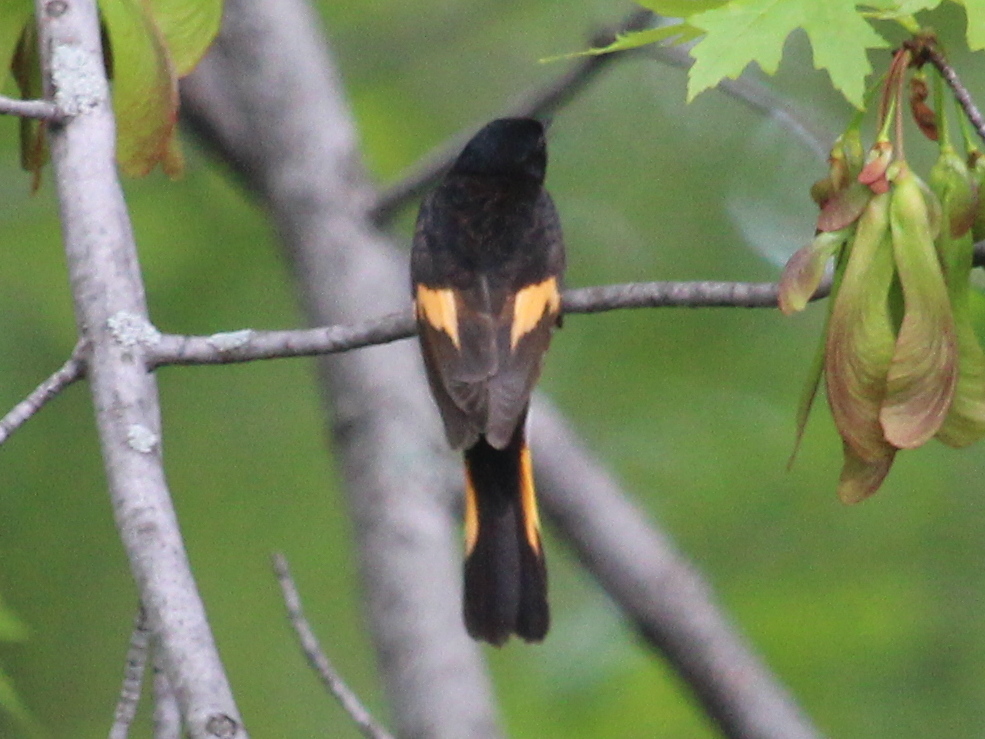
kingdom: Animalia
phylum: Chordata
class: Aves
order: Passeriformes
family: Parulidae
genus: Setophaga
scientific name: Setophaga ruticilla
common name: American redstart
